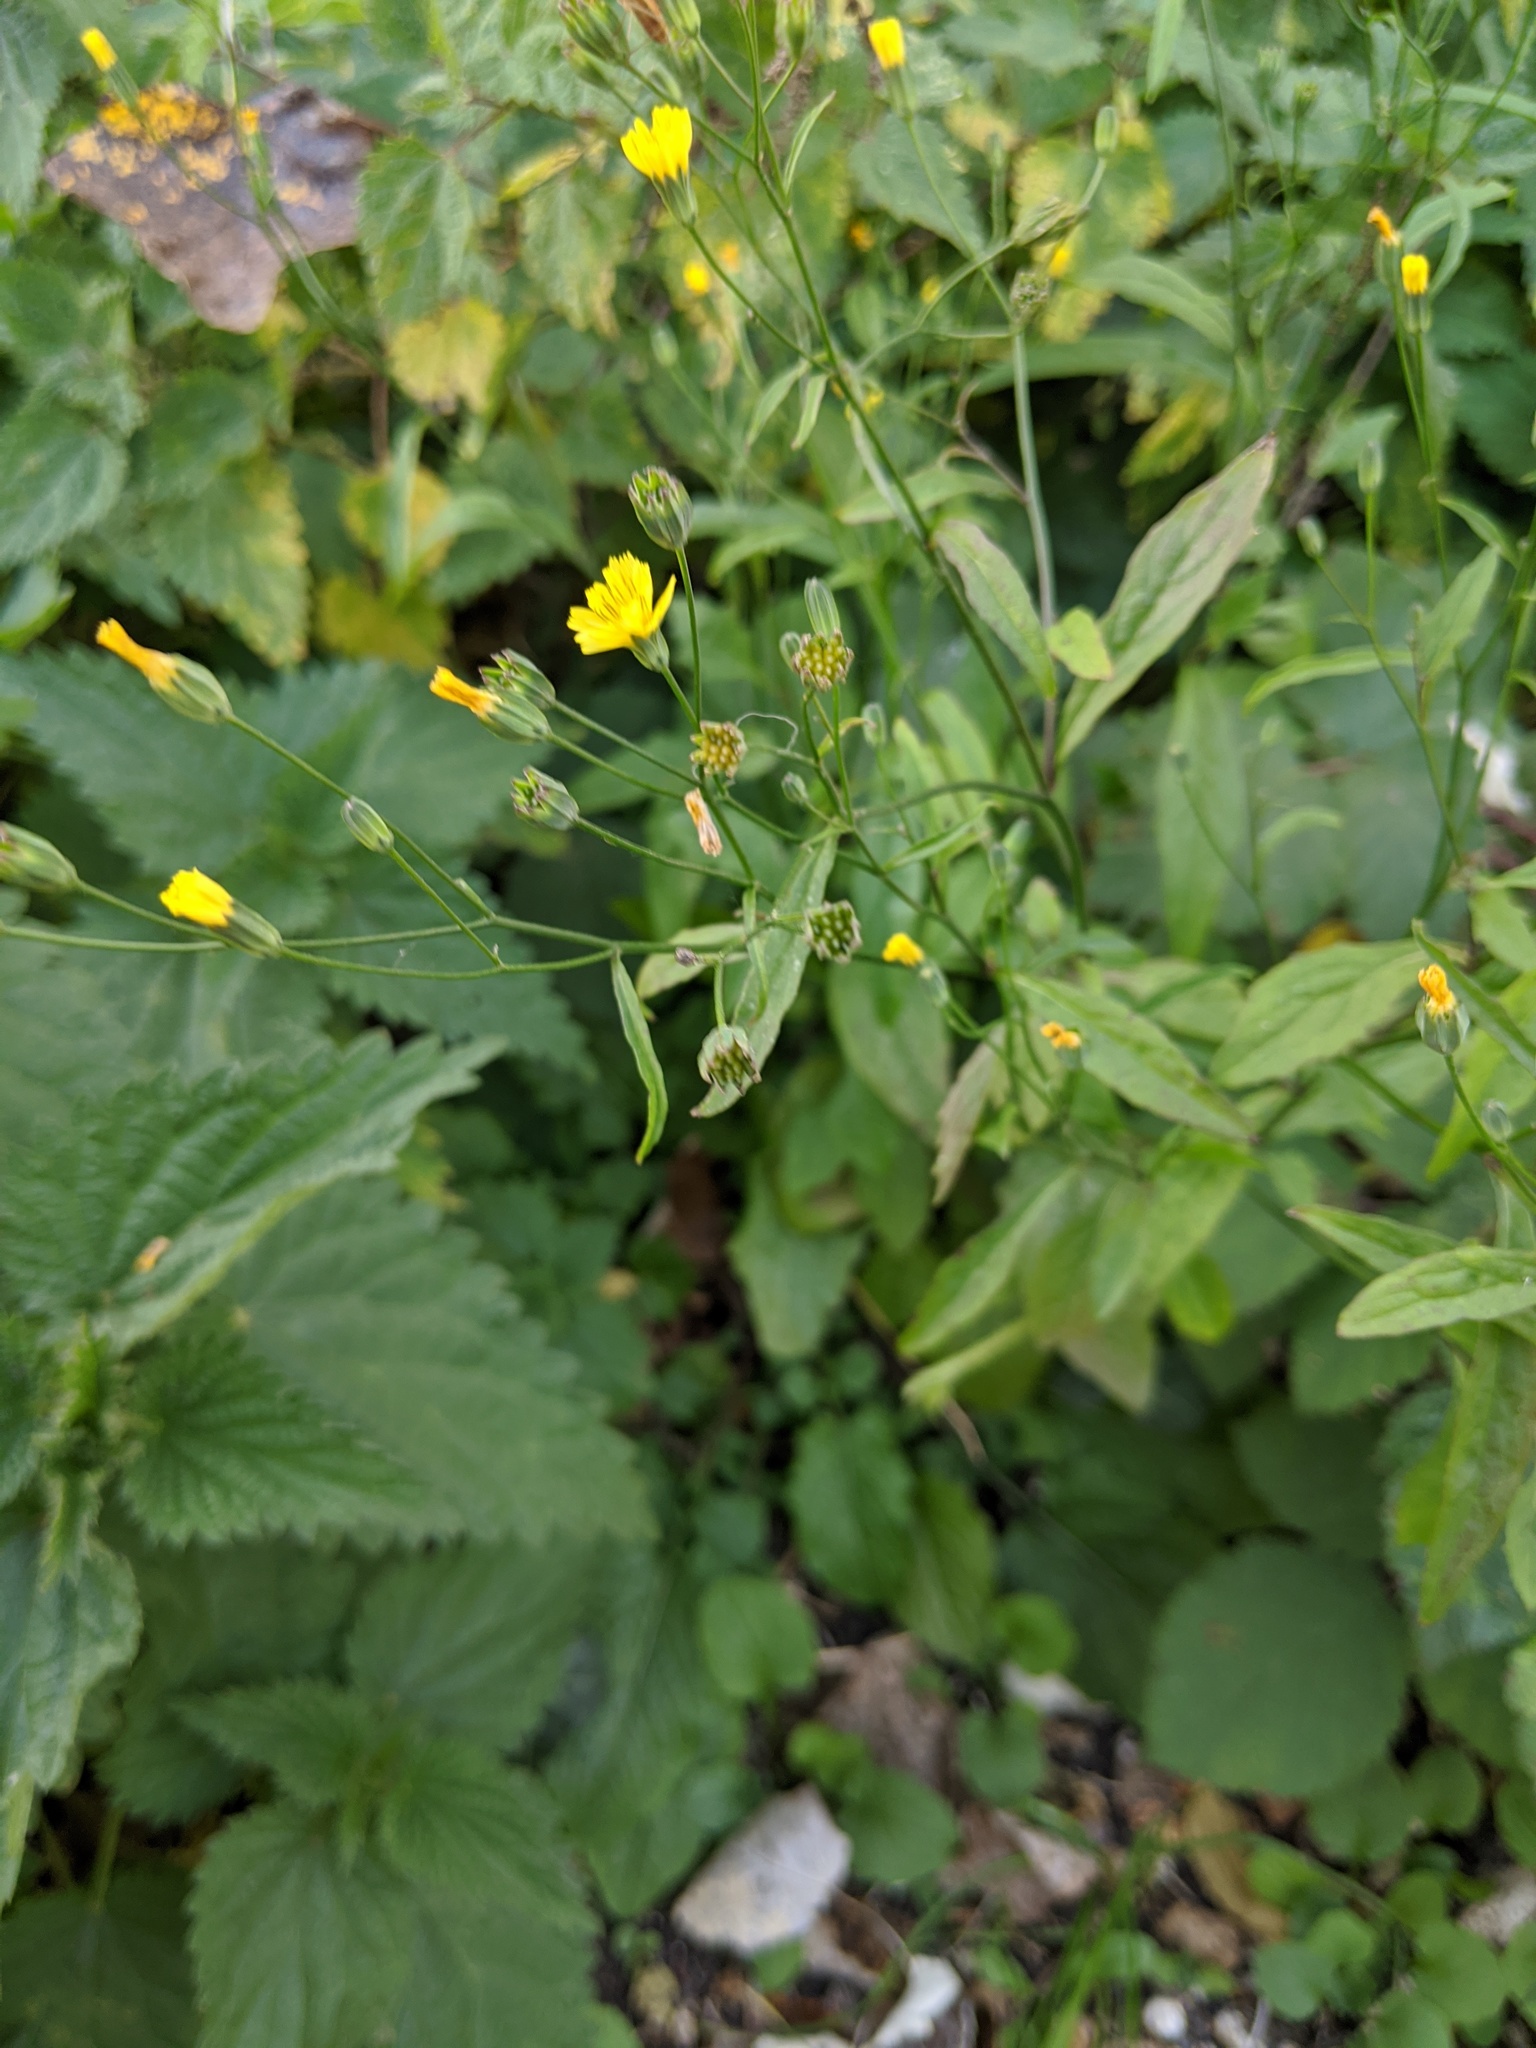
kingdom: Plantae
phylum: Tracheophyta
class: Magnoliopsida
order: Asterales
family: Asteraceae
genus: Lapsana
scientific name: Lapsana communis
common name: Nipplewort
